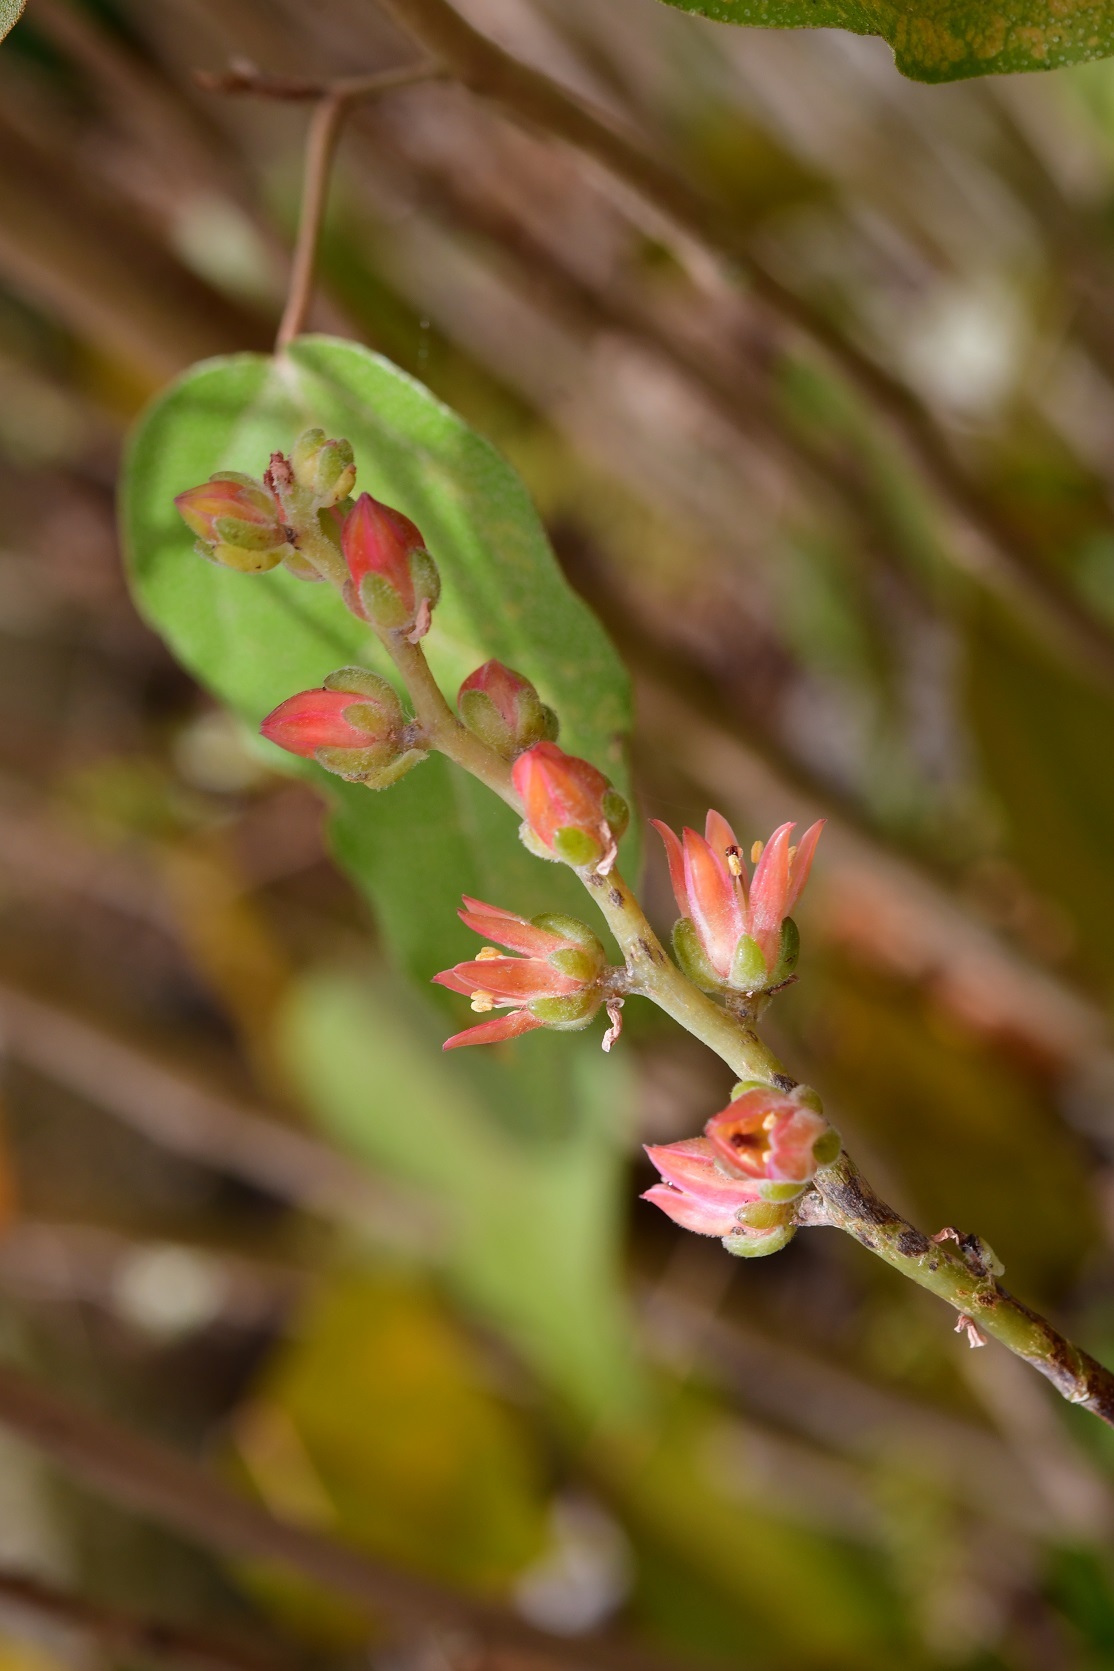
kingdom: Plantae
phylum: Tracheophyta
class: Magnoliopsida
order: Saxifragales
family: Crassulaceae
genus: Echeveria
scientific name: Echeveria goldmanii
